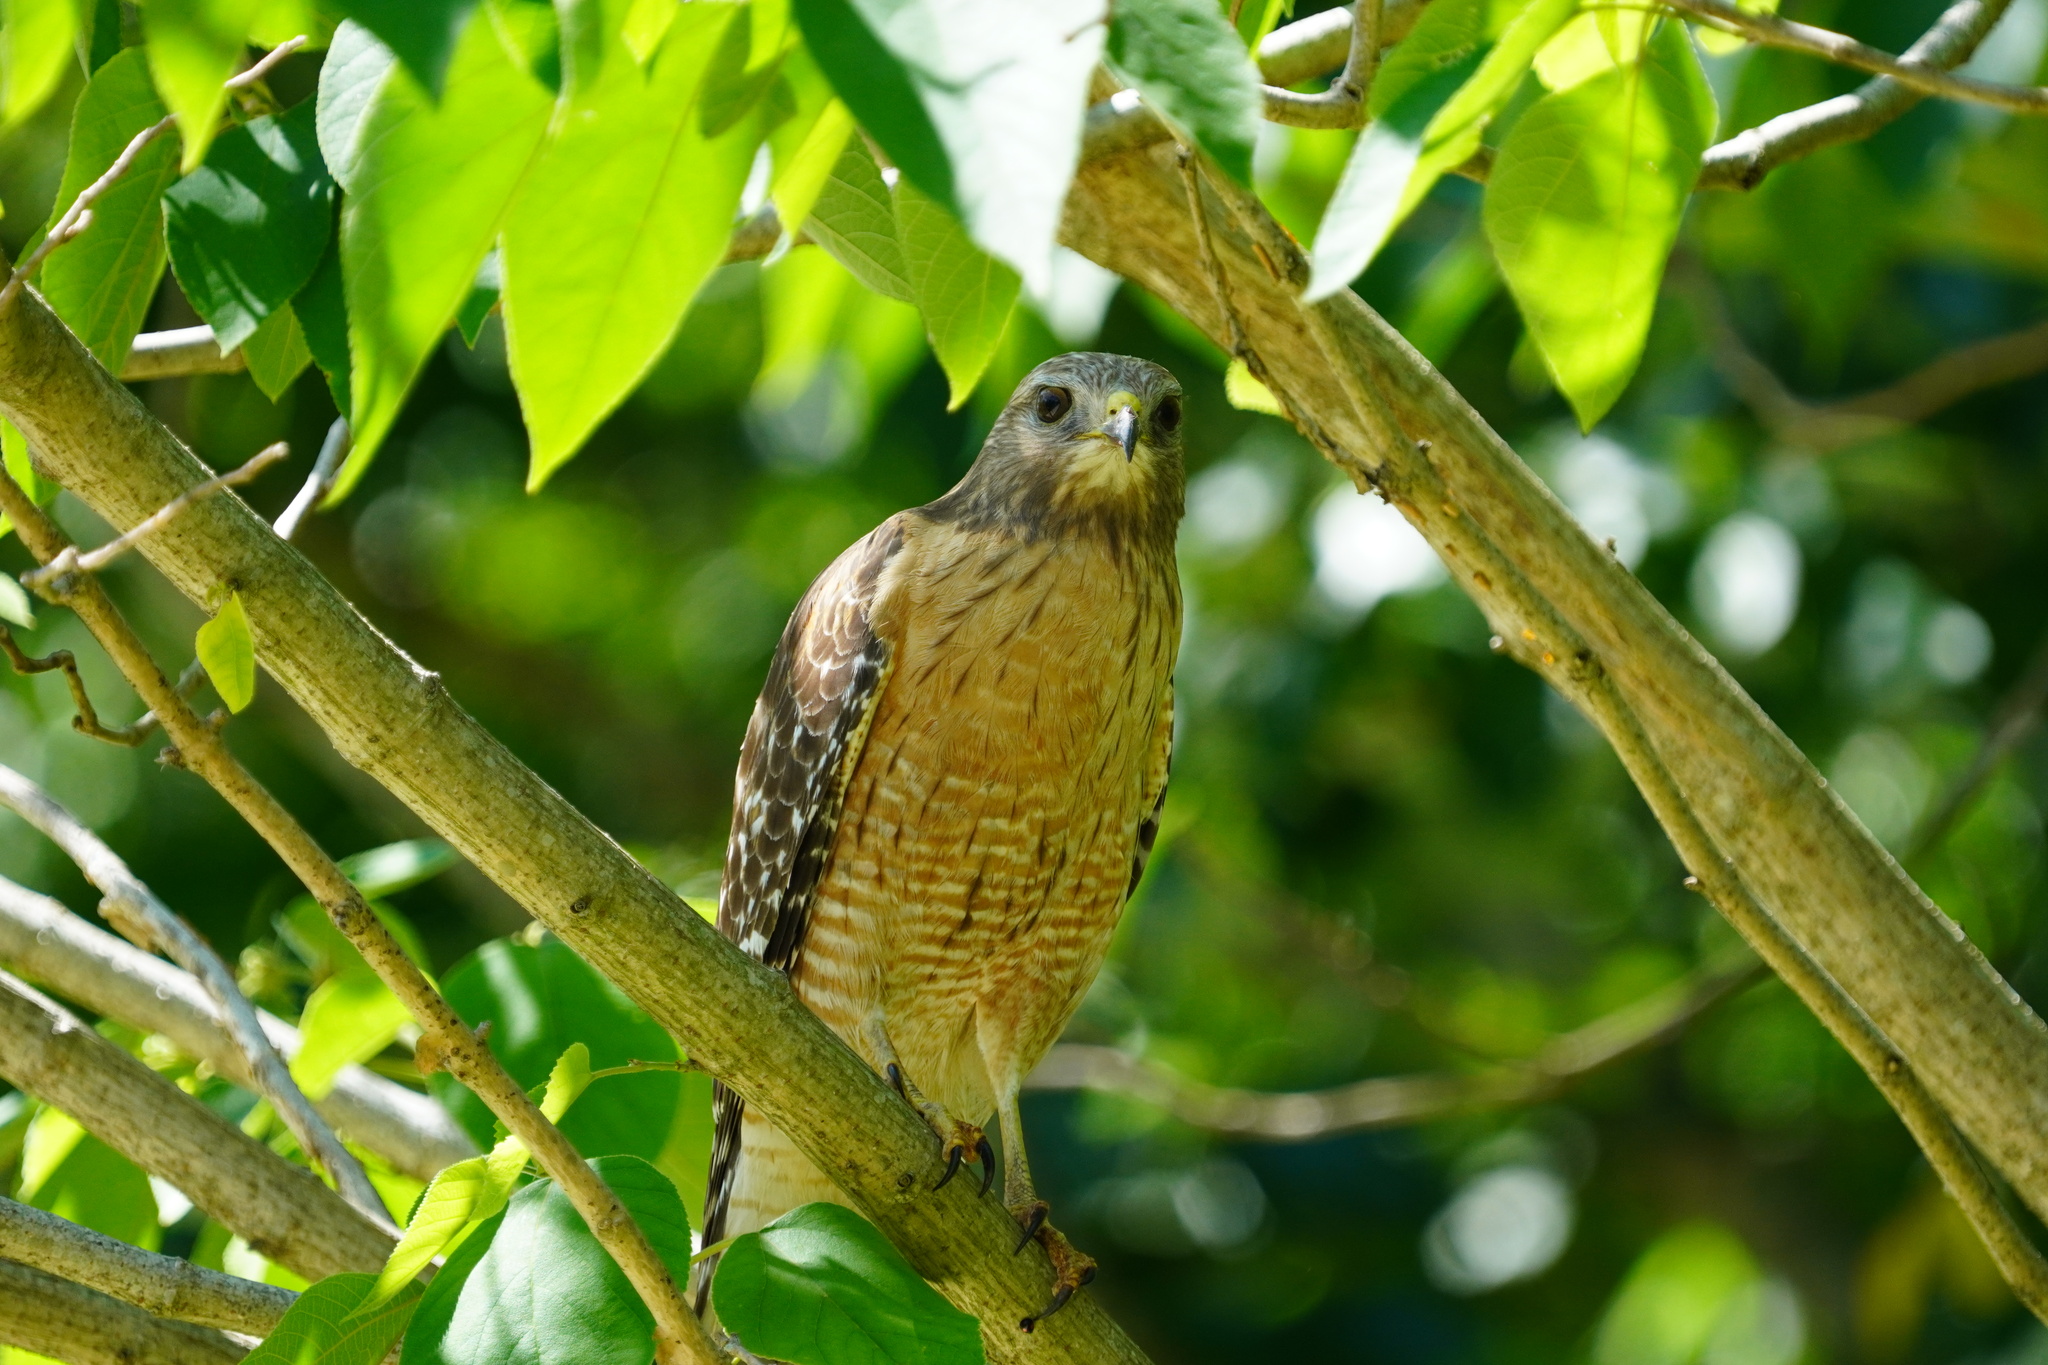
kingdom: Animalia
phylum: Chordata
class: Aves
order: Accipitriformes
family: Accipitridae
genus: Buteo
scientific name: Buteo lineatus
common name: Red-shouldered hawk
